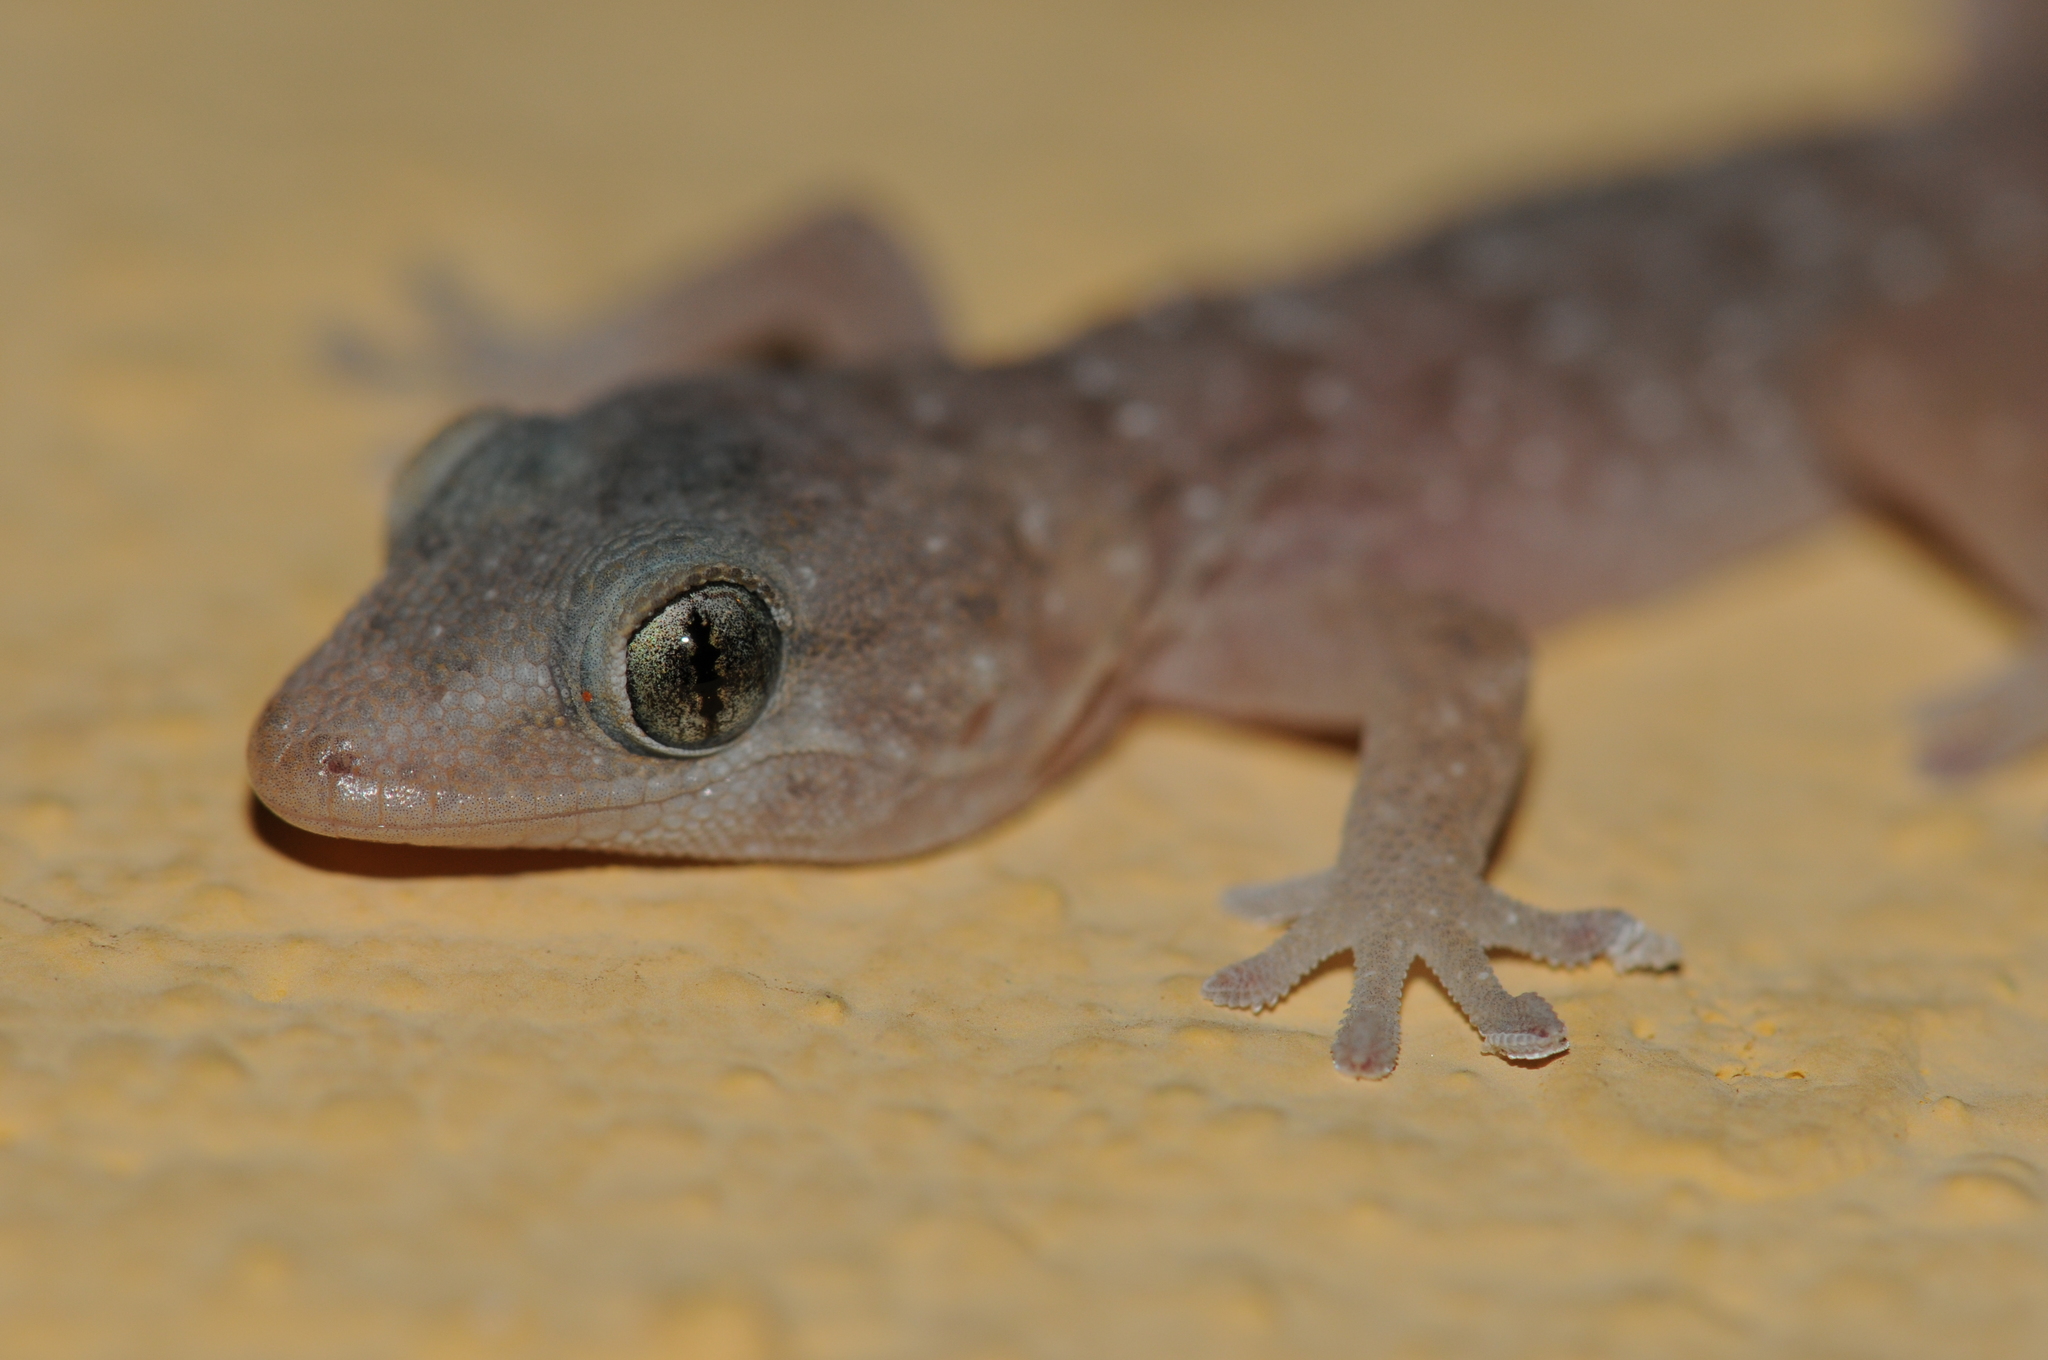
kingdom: Animalia
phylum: Chordata
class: Squamata
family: Phyllodactylidae
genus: Tarentola
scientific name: Tarentola boettgeri
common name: Boettger's wall gecko
